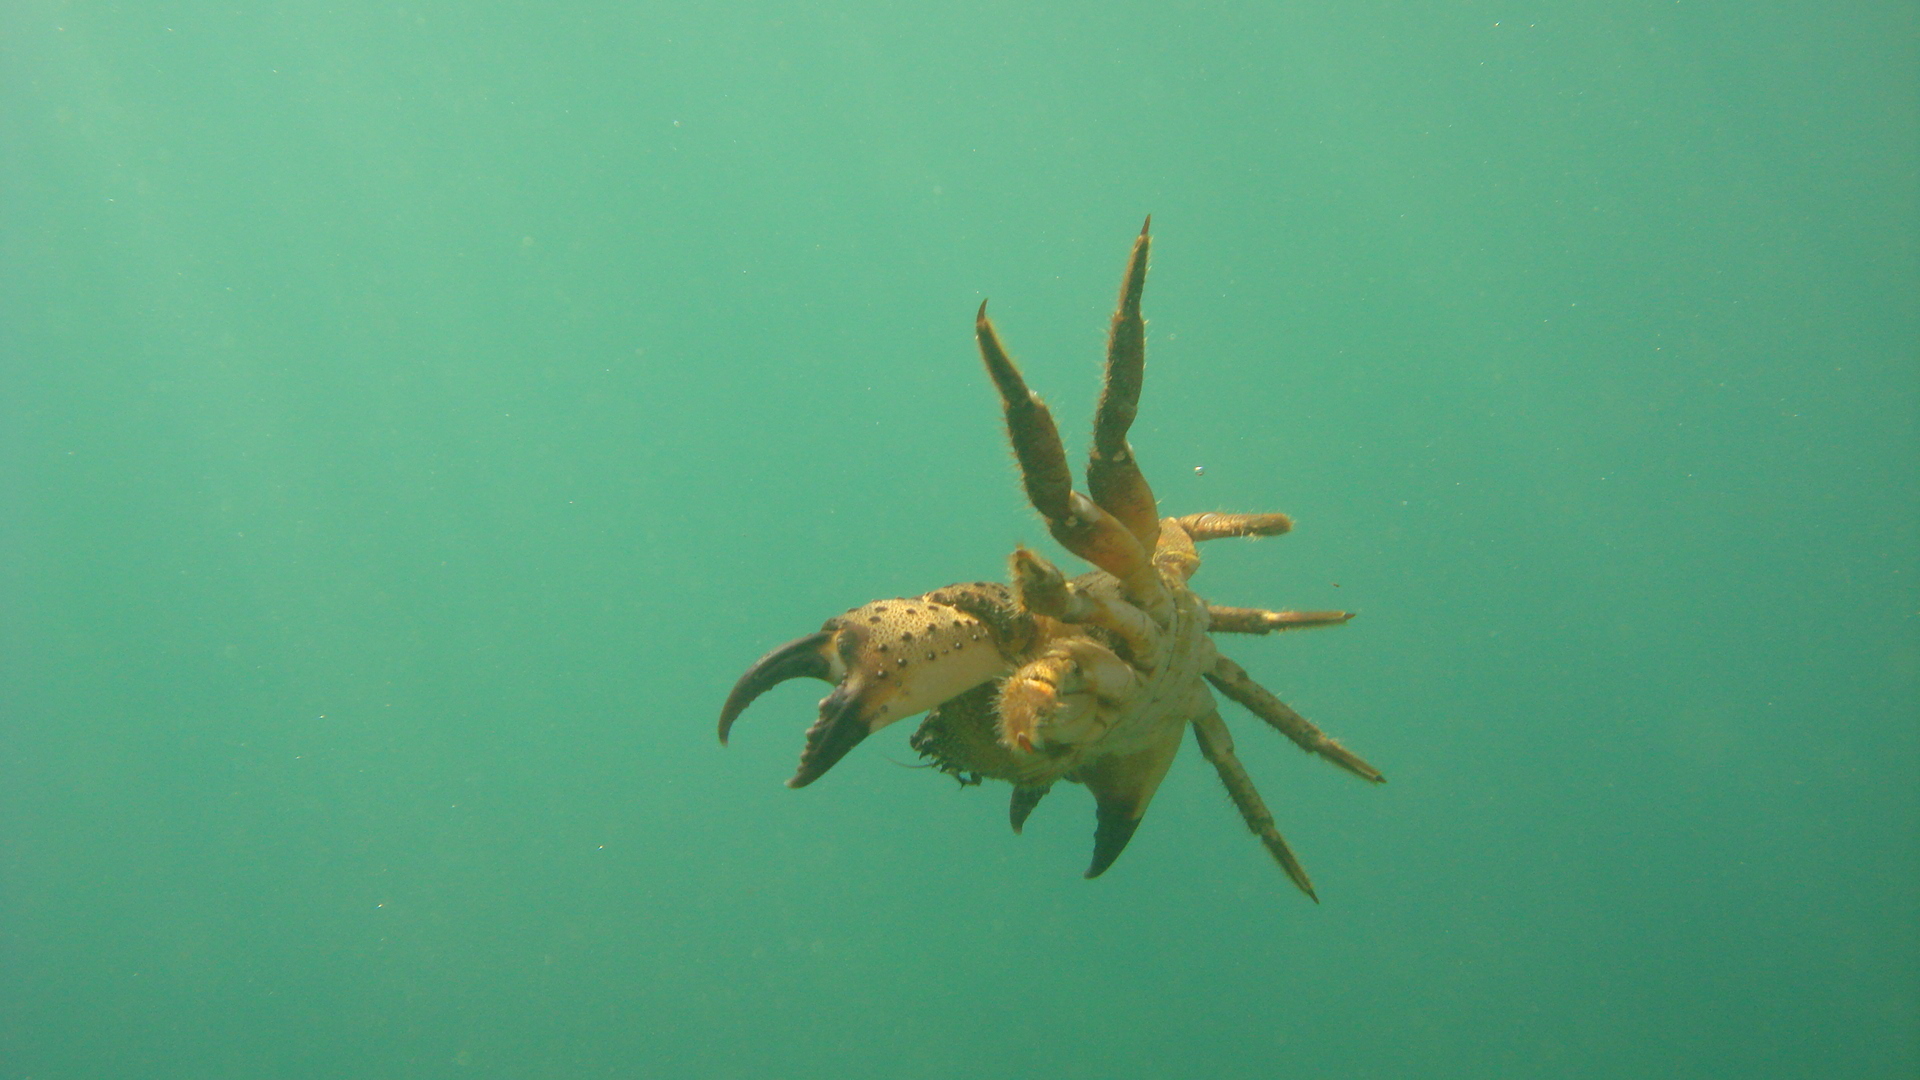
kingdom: Animalia
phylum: Arthropoda
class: Malacostraca
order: Decapoda
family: Eriphiidae
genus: Eriphia
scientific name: Eriphia verrucosa
